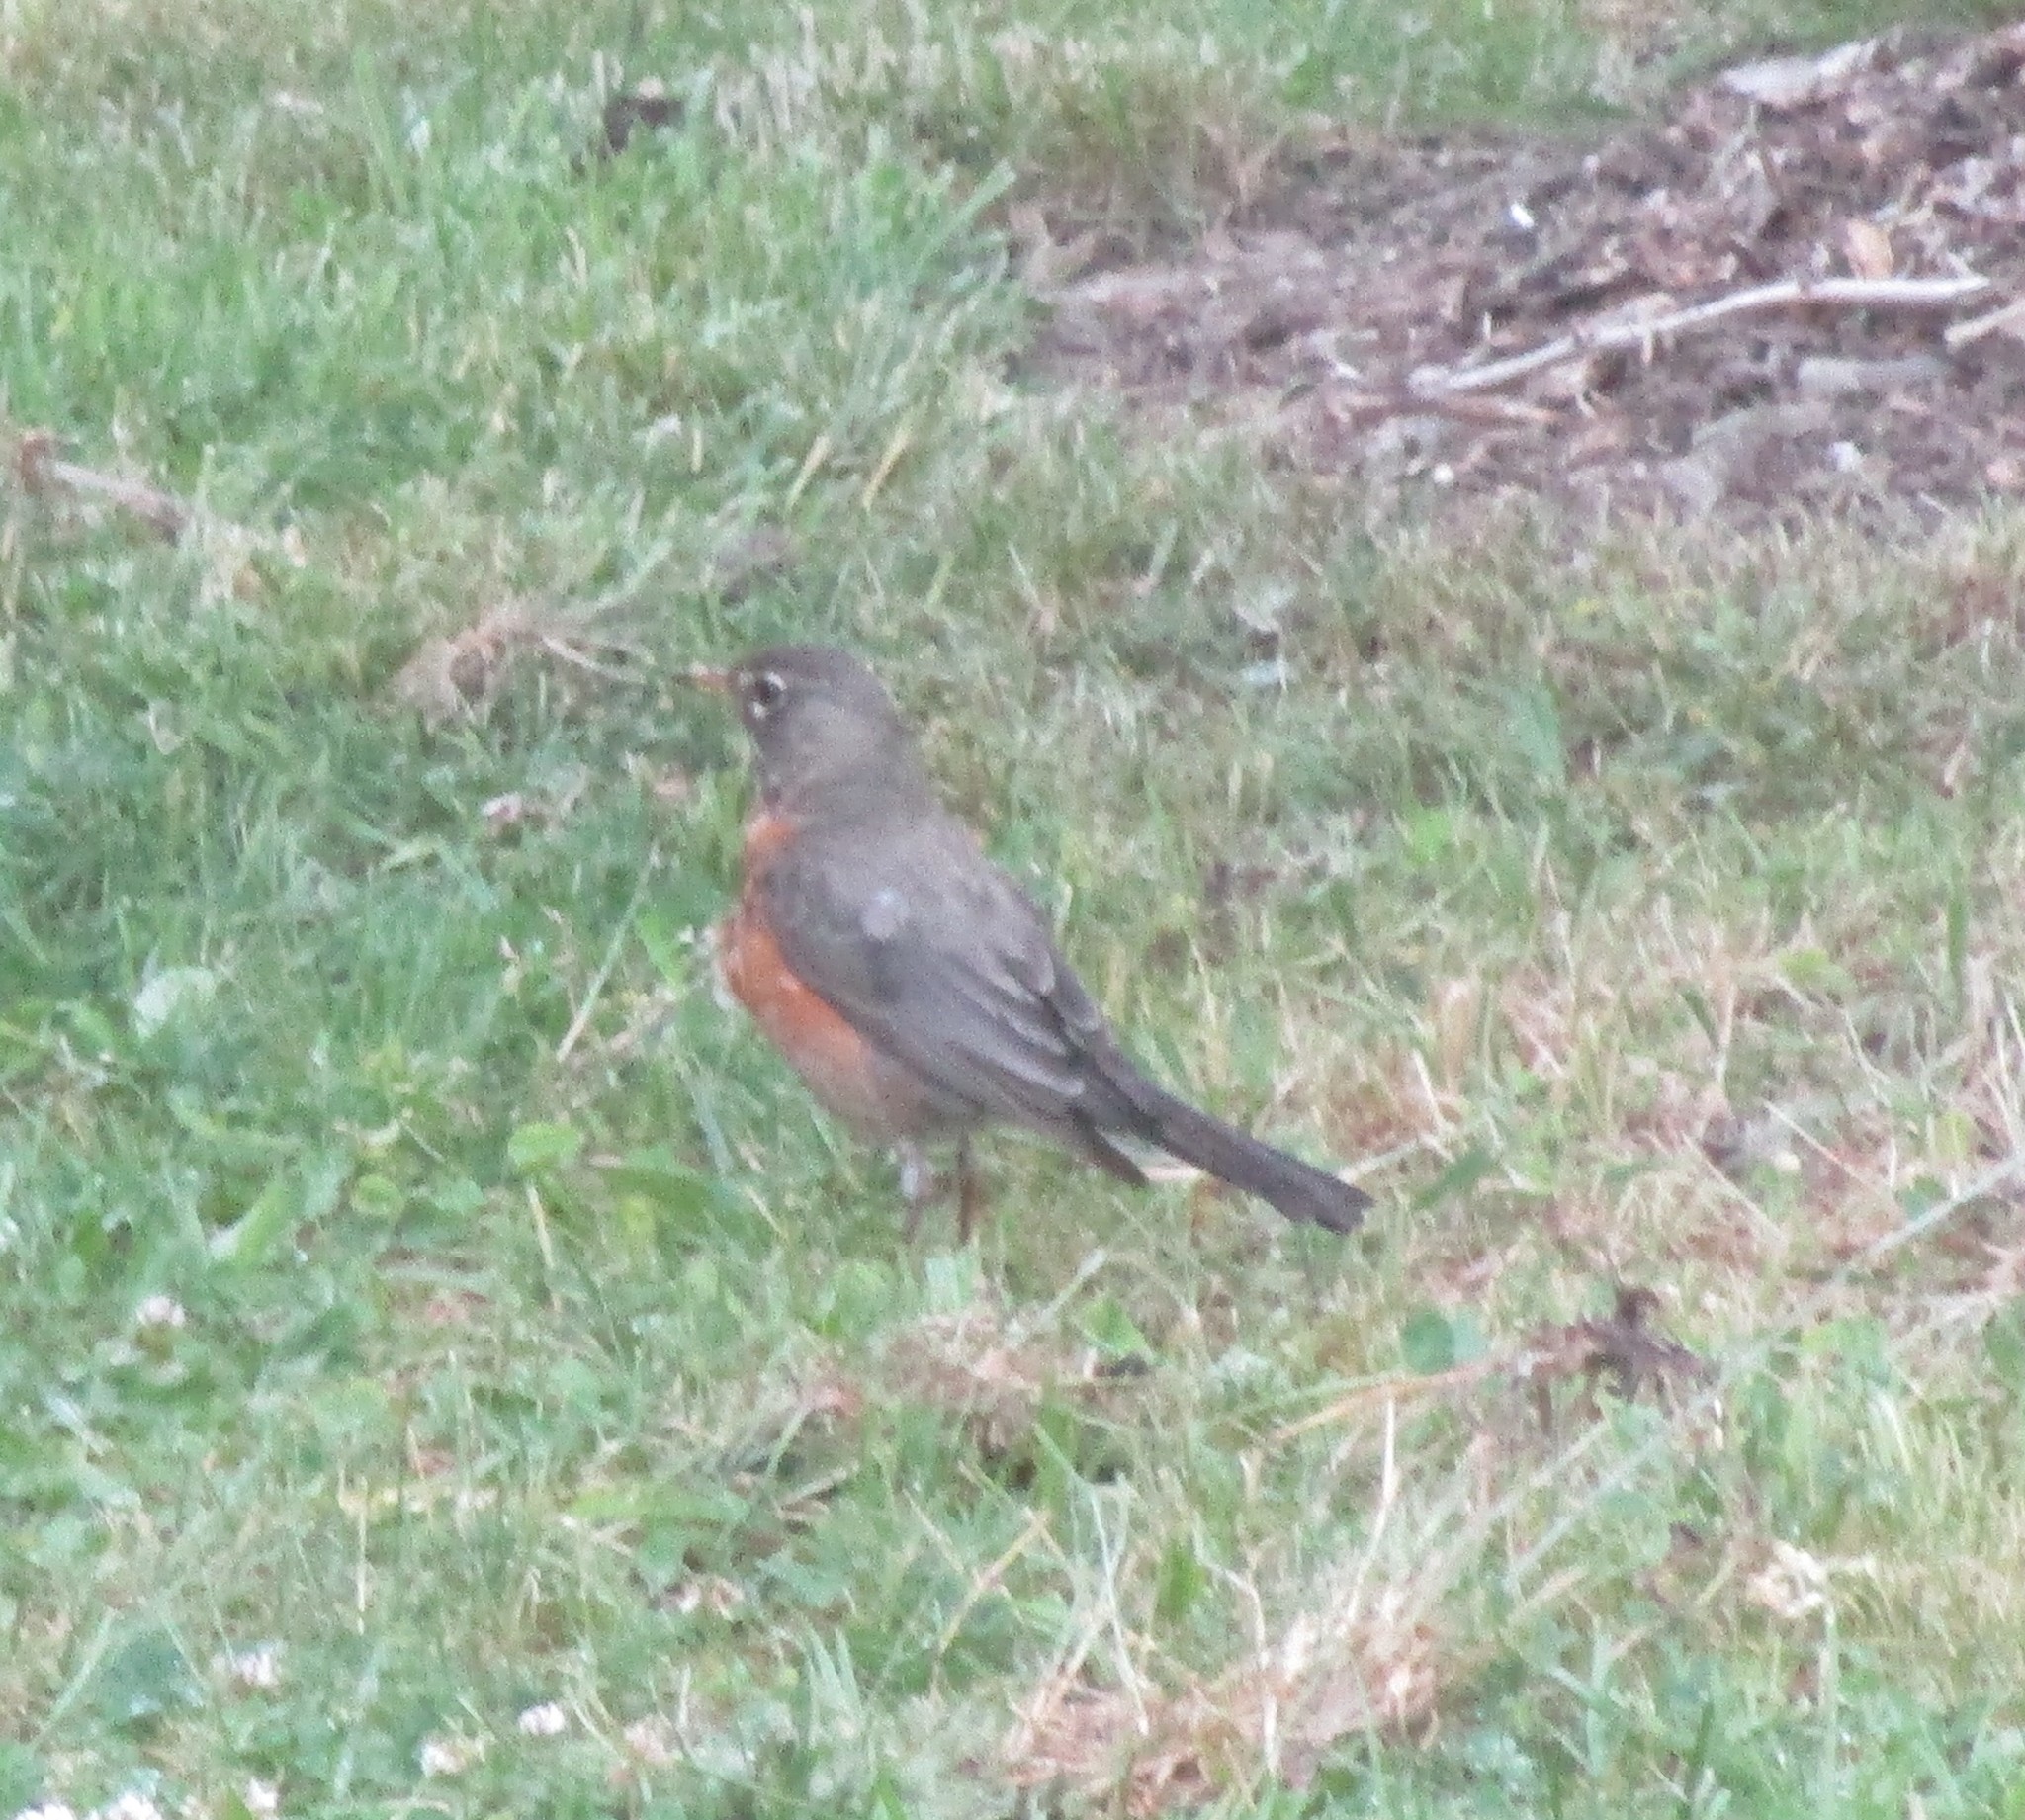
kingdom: Animalia
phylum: Chordata
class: Aves
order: Passeriformes
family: Turdidae
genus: Turdus
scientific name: Turdus migratorius
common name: American robin
